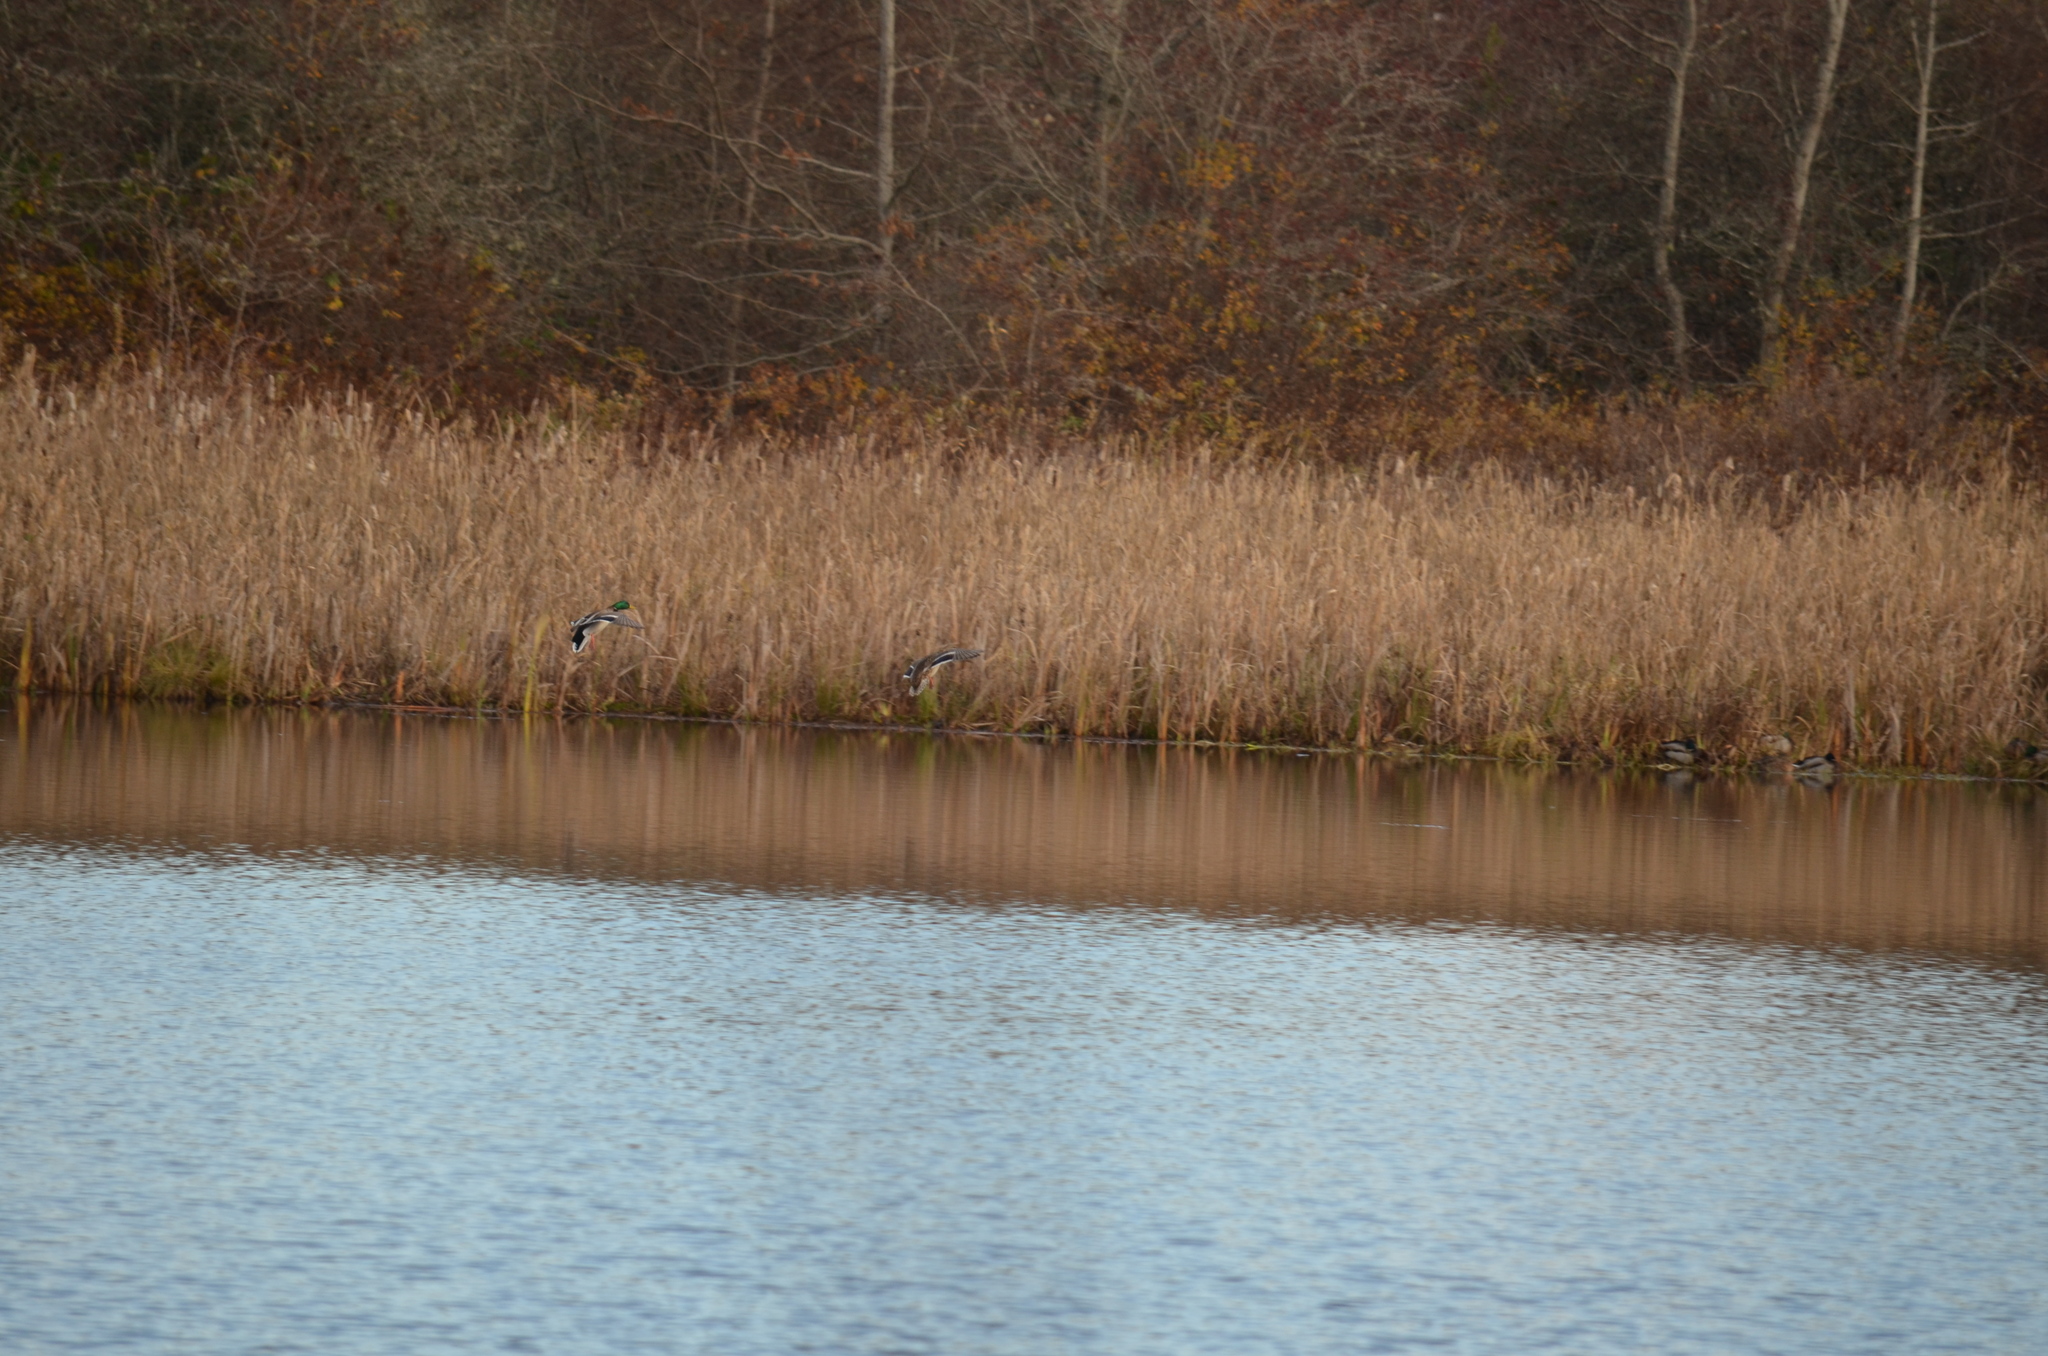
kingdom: Animalia
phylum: Chordata
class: Aves
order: Anseriformes
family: Anatidae
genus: Anas
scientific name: Anas platyrhynchos
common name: Mallard
